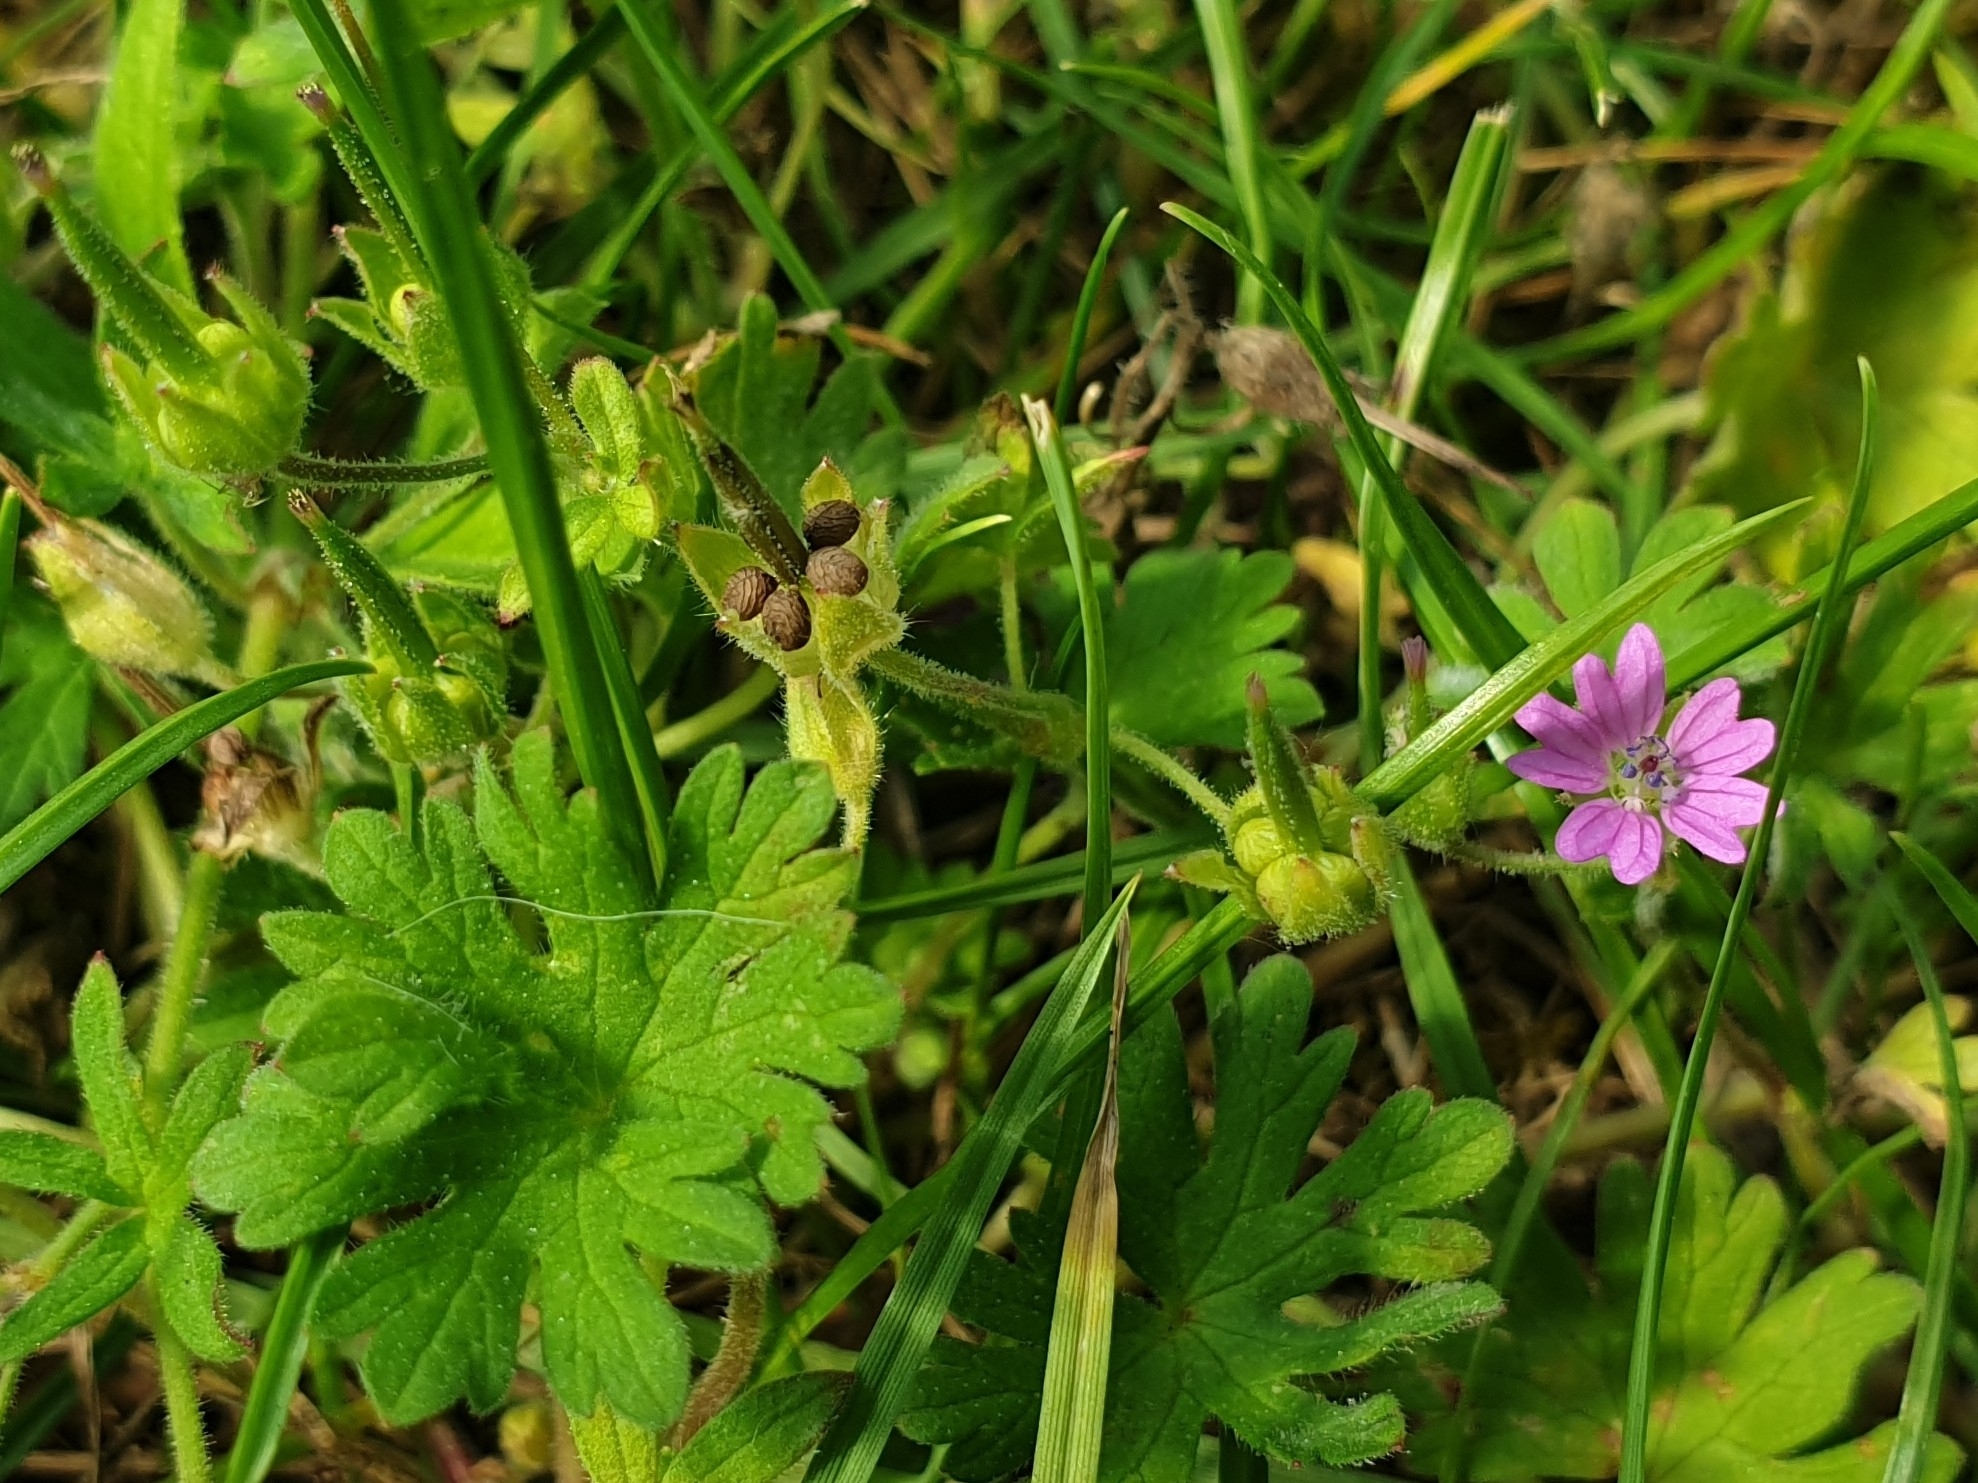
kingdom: Plantae
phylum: Tracheophyta
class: Magnoliopsida
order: Geraniales
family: Geraniaceae
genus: Geranium
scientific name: Geranium molle
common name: Dove's-foot crane's-bill
